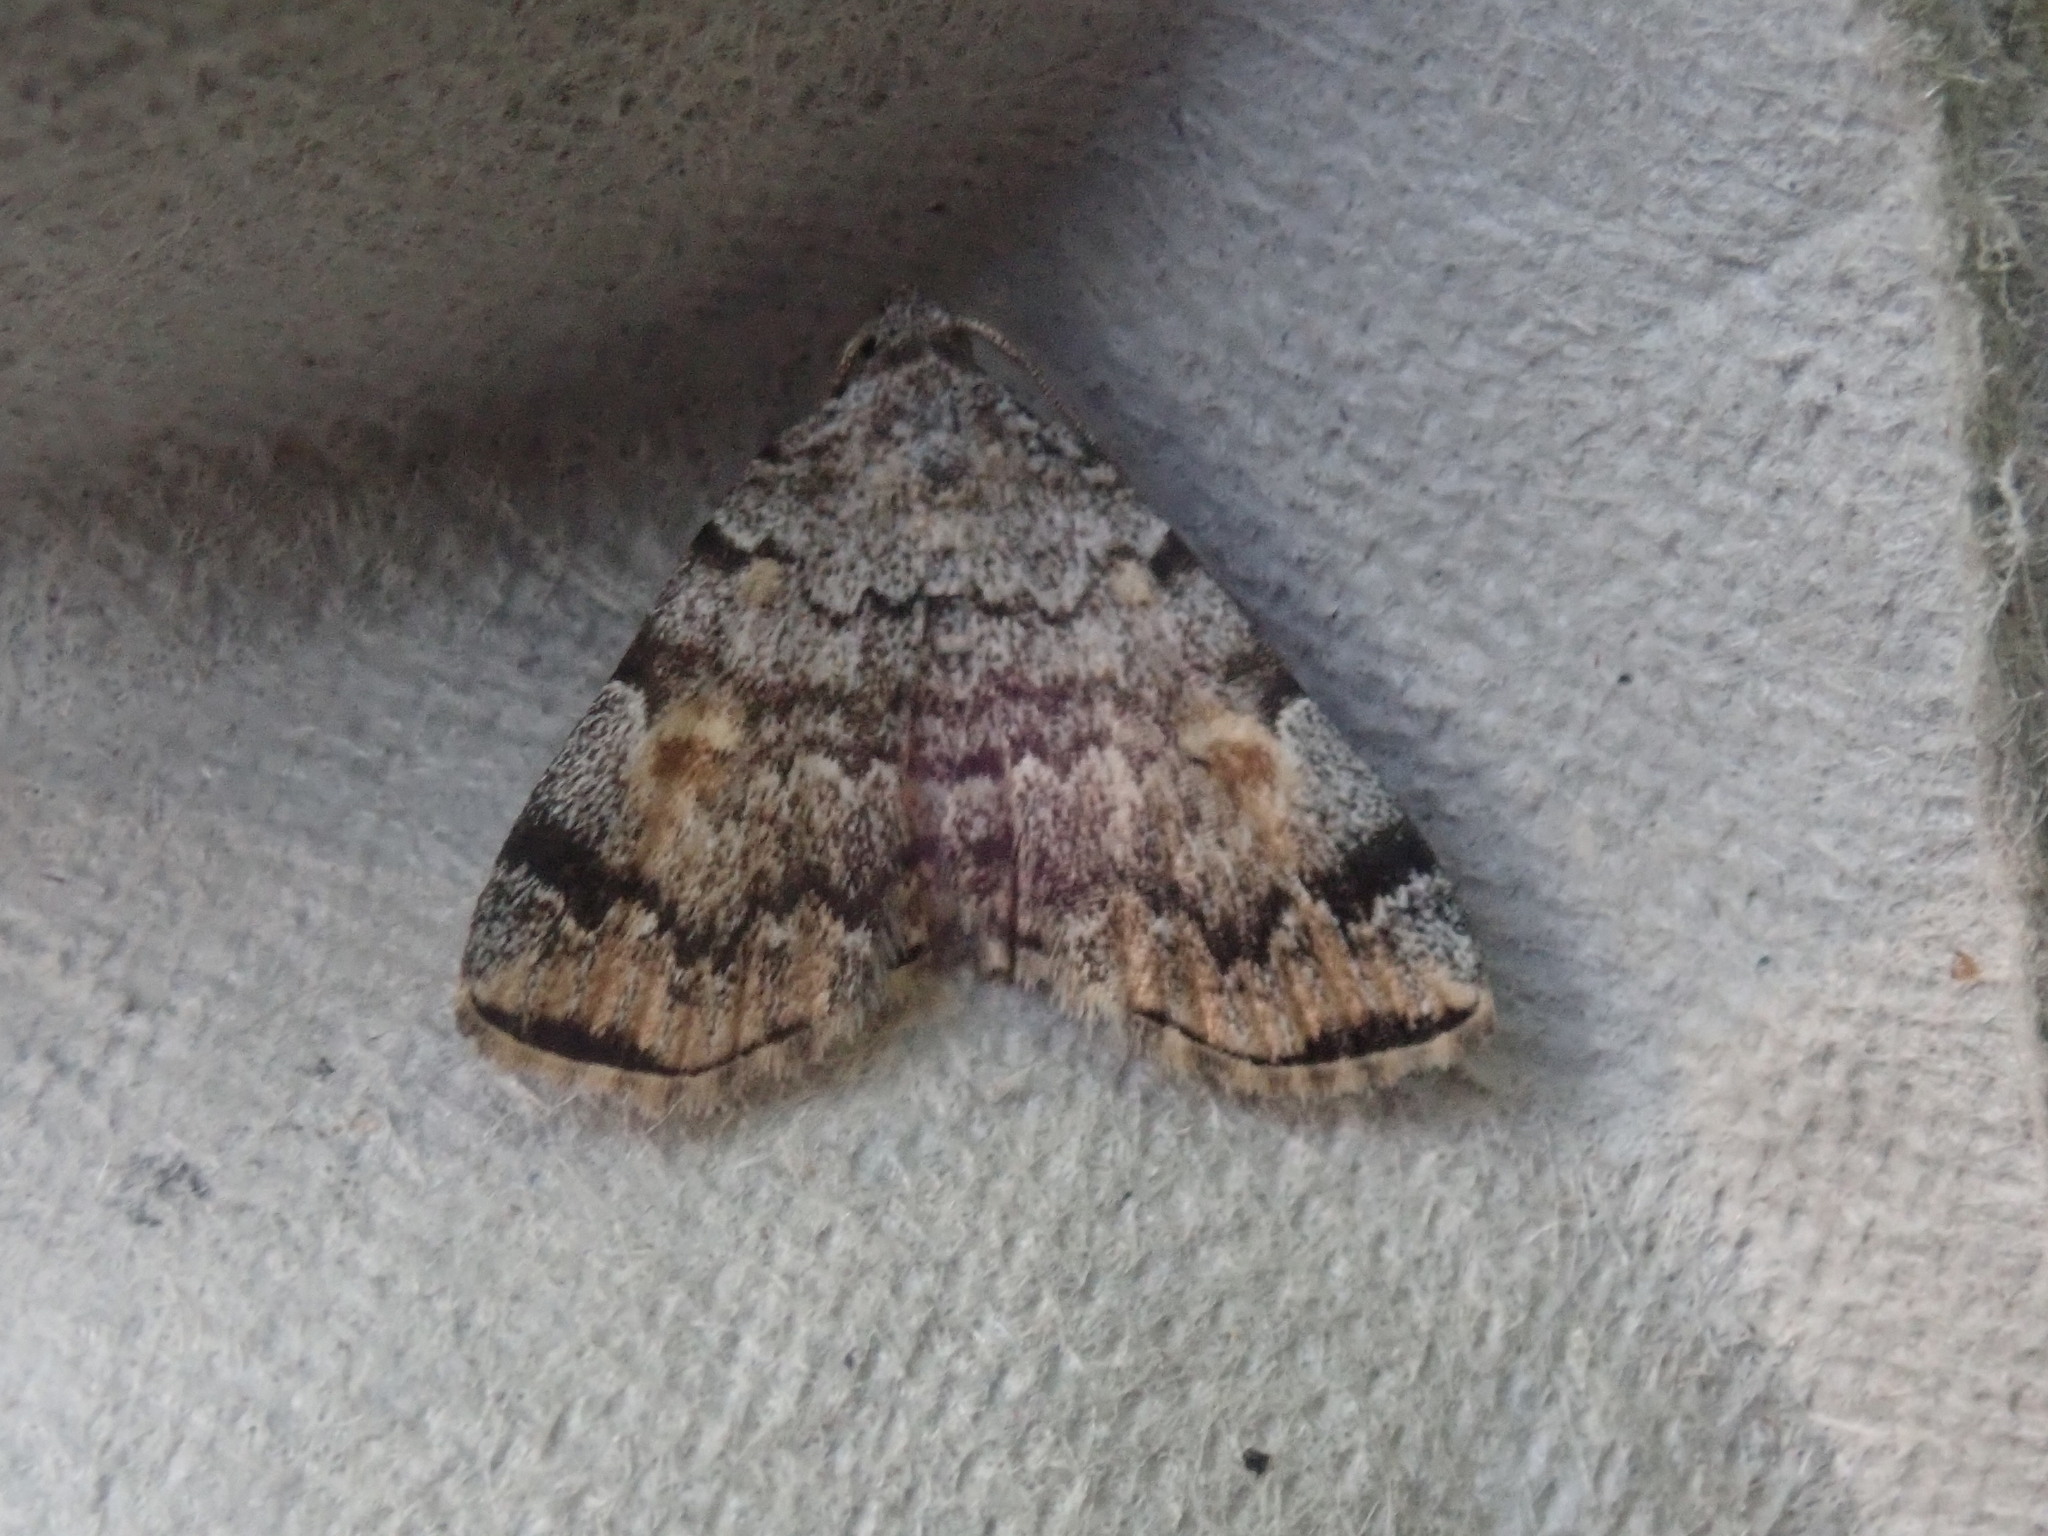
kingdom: Animalia
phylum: Arthropoda
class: Insecta
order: Lepidoptera
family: Erebidae
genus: Idia
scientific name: Idia americalis
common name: American idia moth
